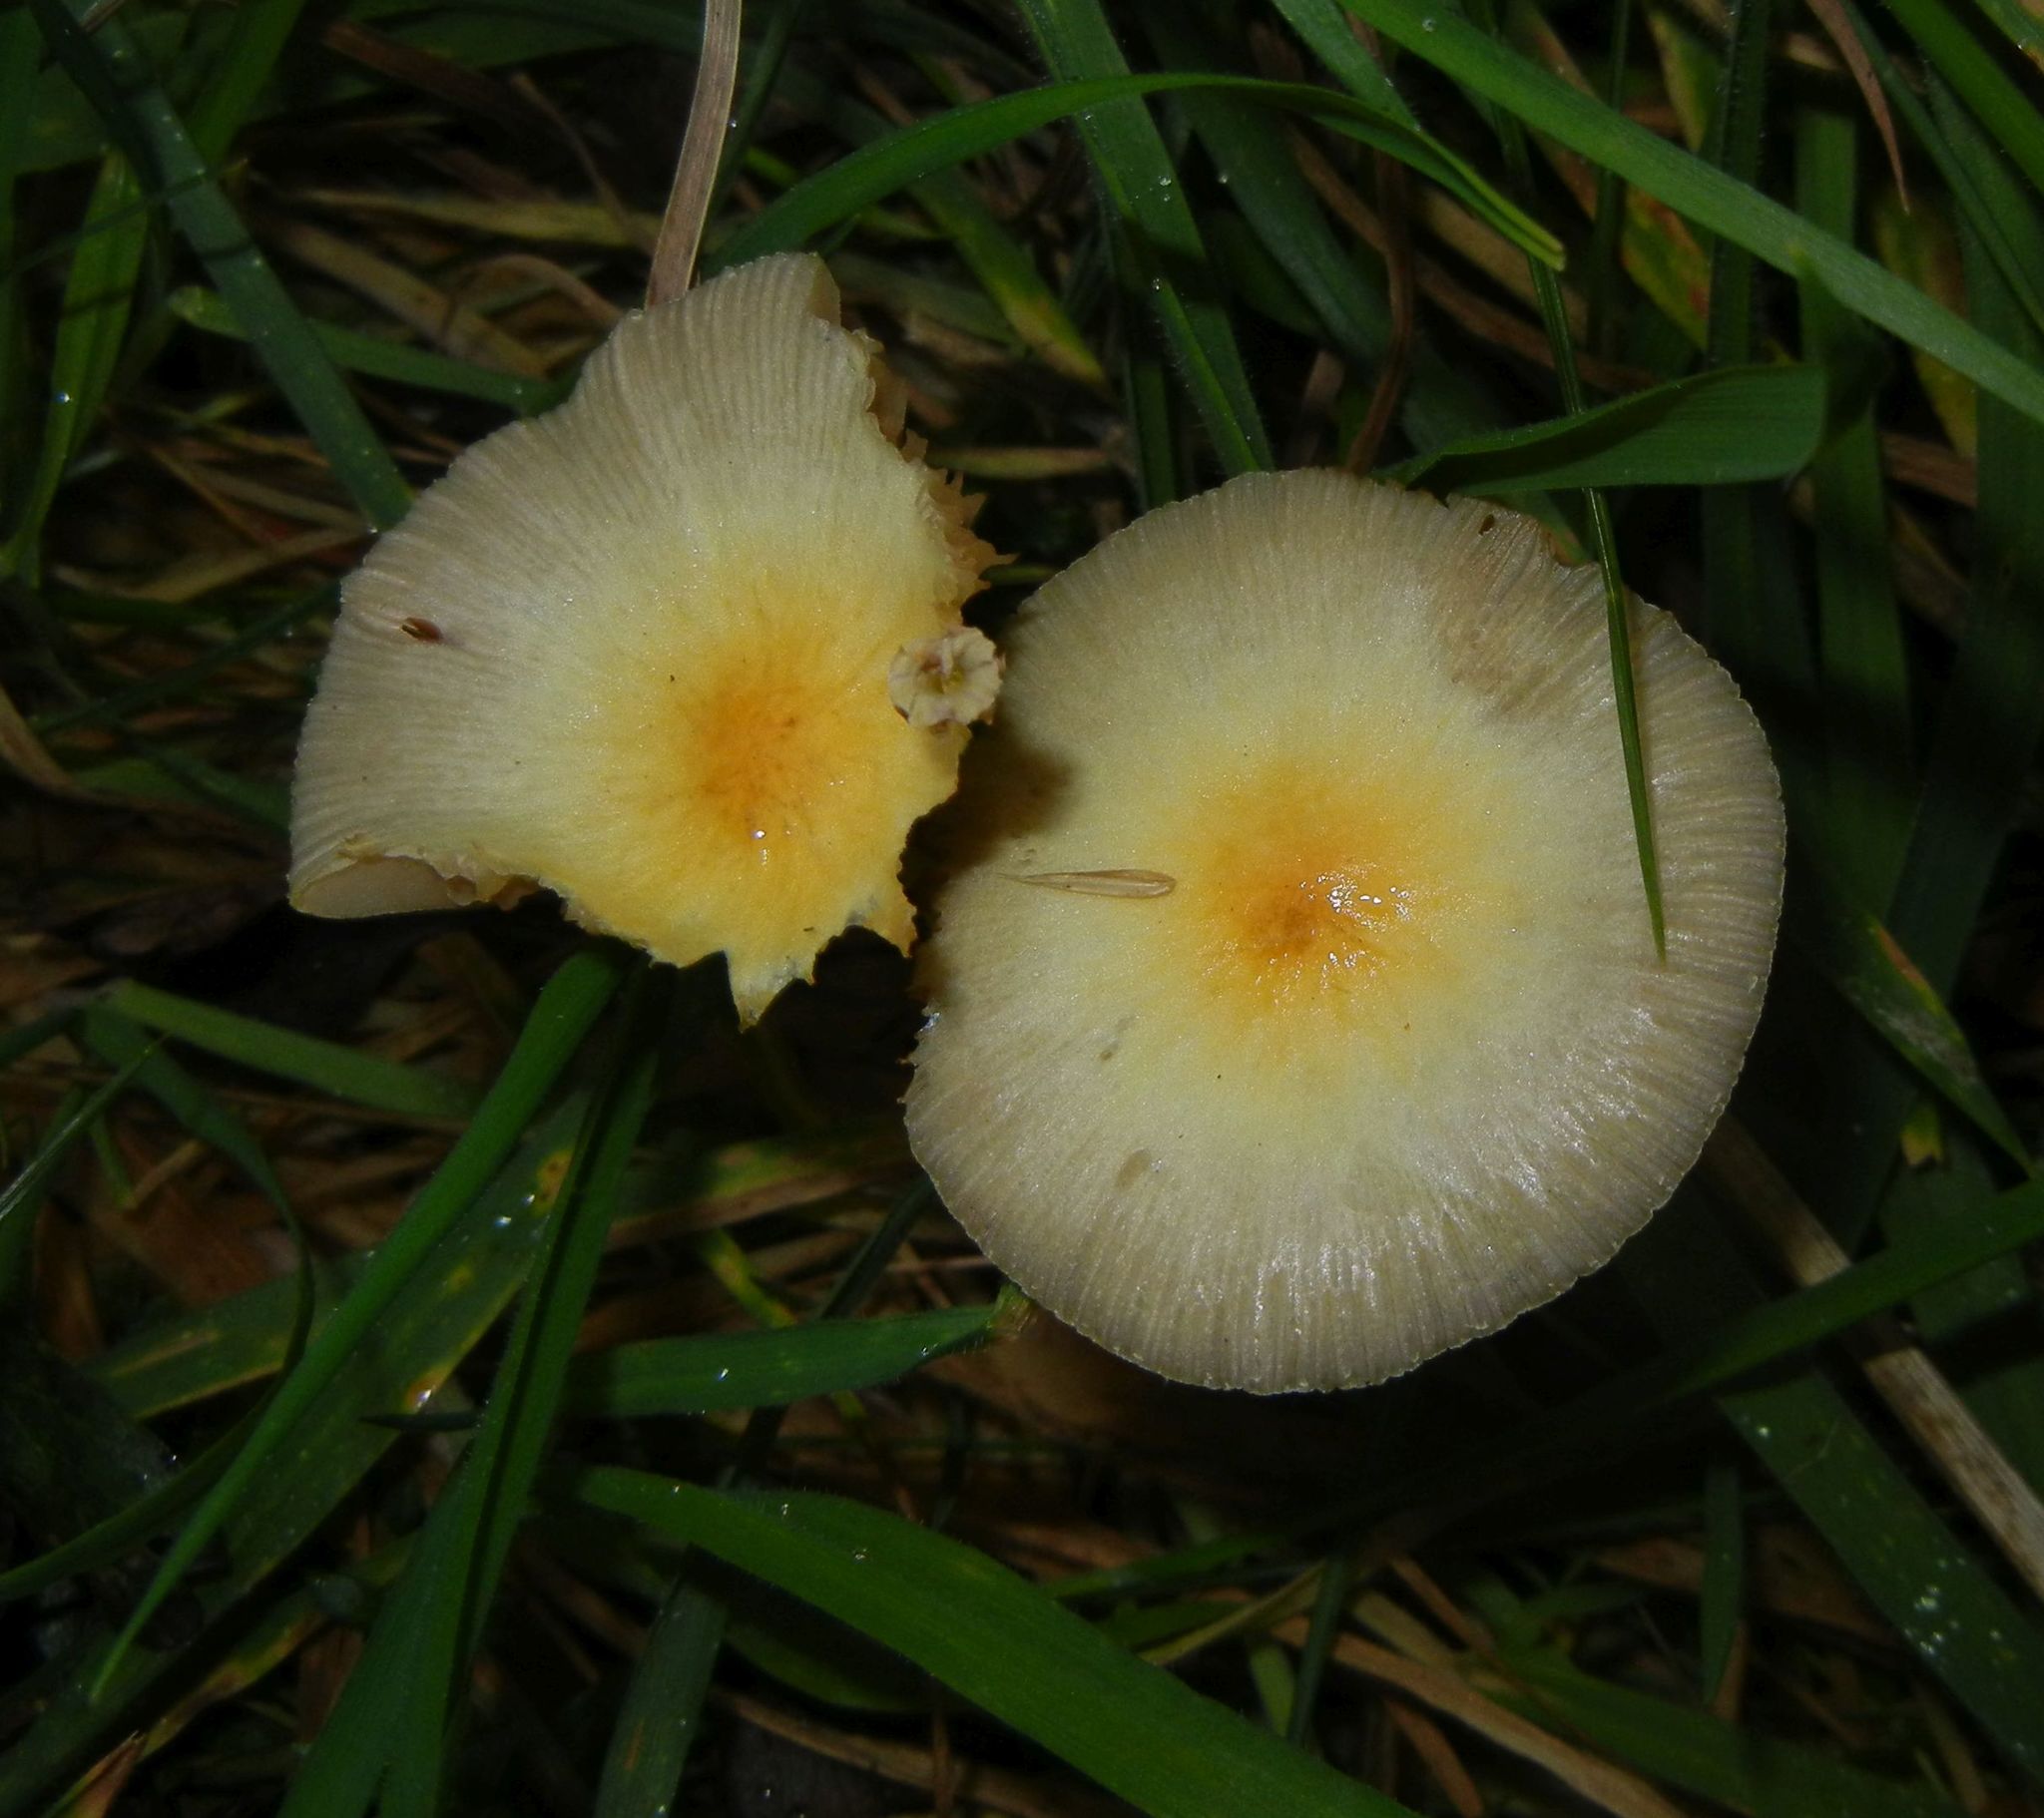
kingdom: Fungi
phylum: Basidiomycota
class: Agaricomycetes
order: Agaricales
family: Bolbitiaceae
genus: Bolbitius
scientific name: Bolbitius titubans
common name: Yellow fieldcap
